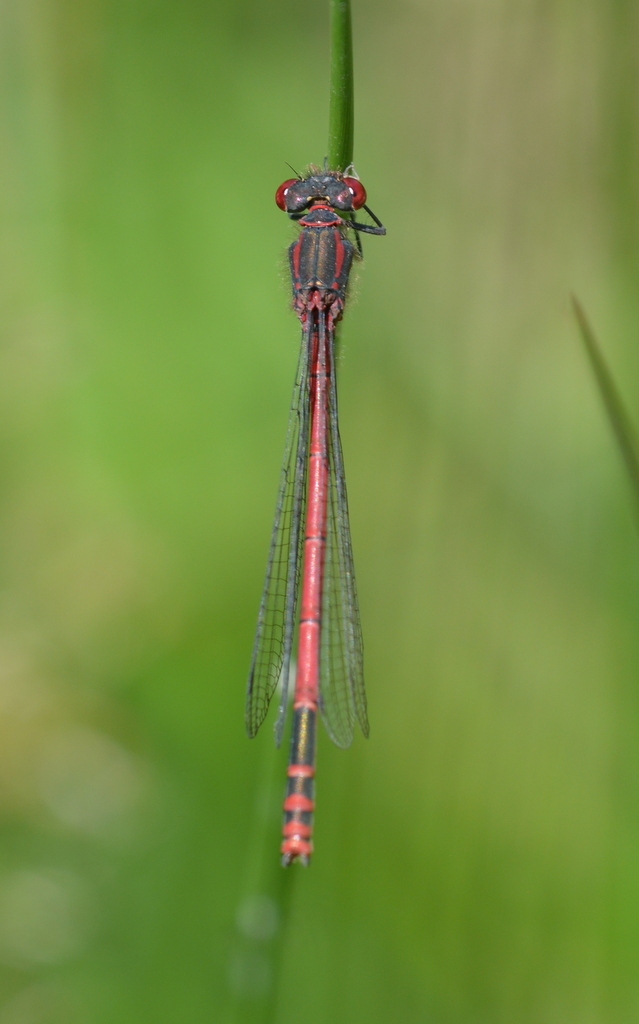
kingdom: Animalia
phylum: Arthropoda
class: Insecta
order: Odonata
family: Coenagrionidae
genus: Pyrrhosoma
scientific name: Pyrrhosoma nymphula
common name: Large red damsel
